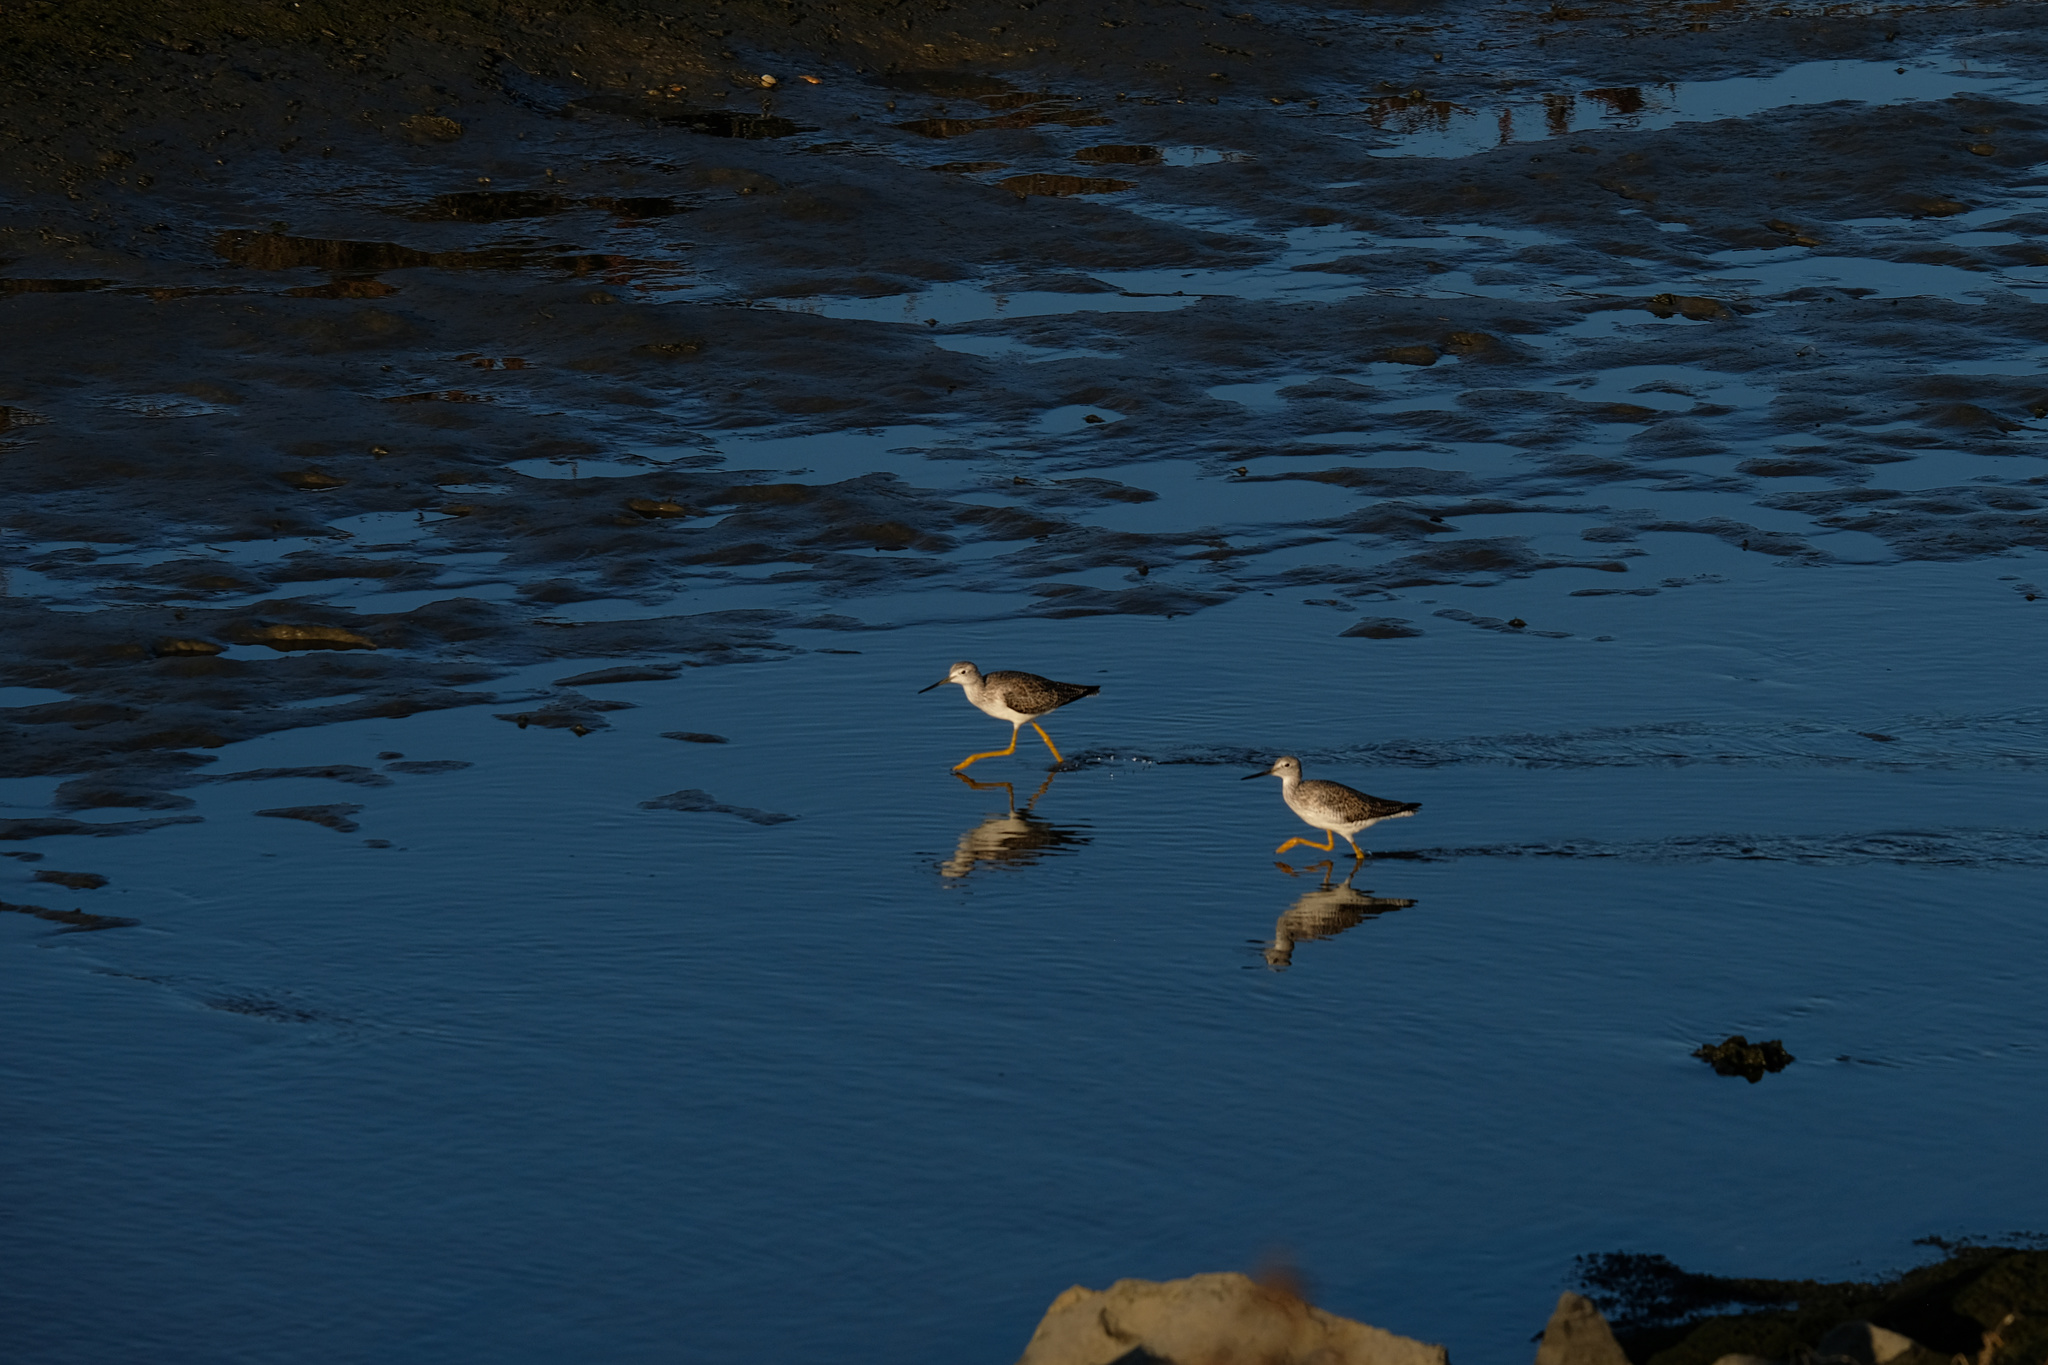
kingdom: Animalia
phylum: Chordata
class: Aves
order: Charadriiformes
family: Scolopacidae
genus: Tringa
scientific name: Tringa melanoleuca
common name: Greater yellowlegs
